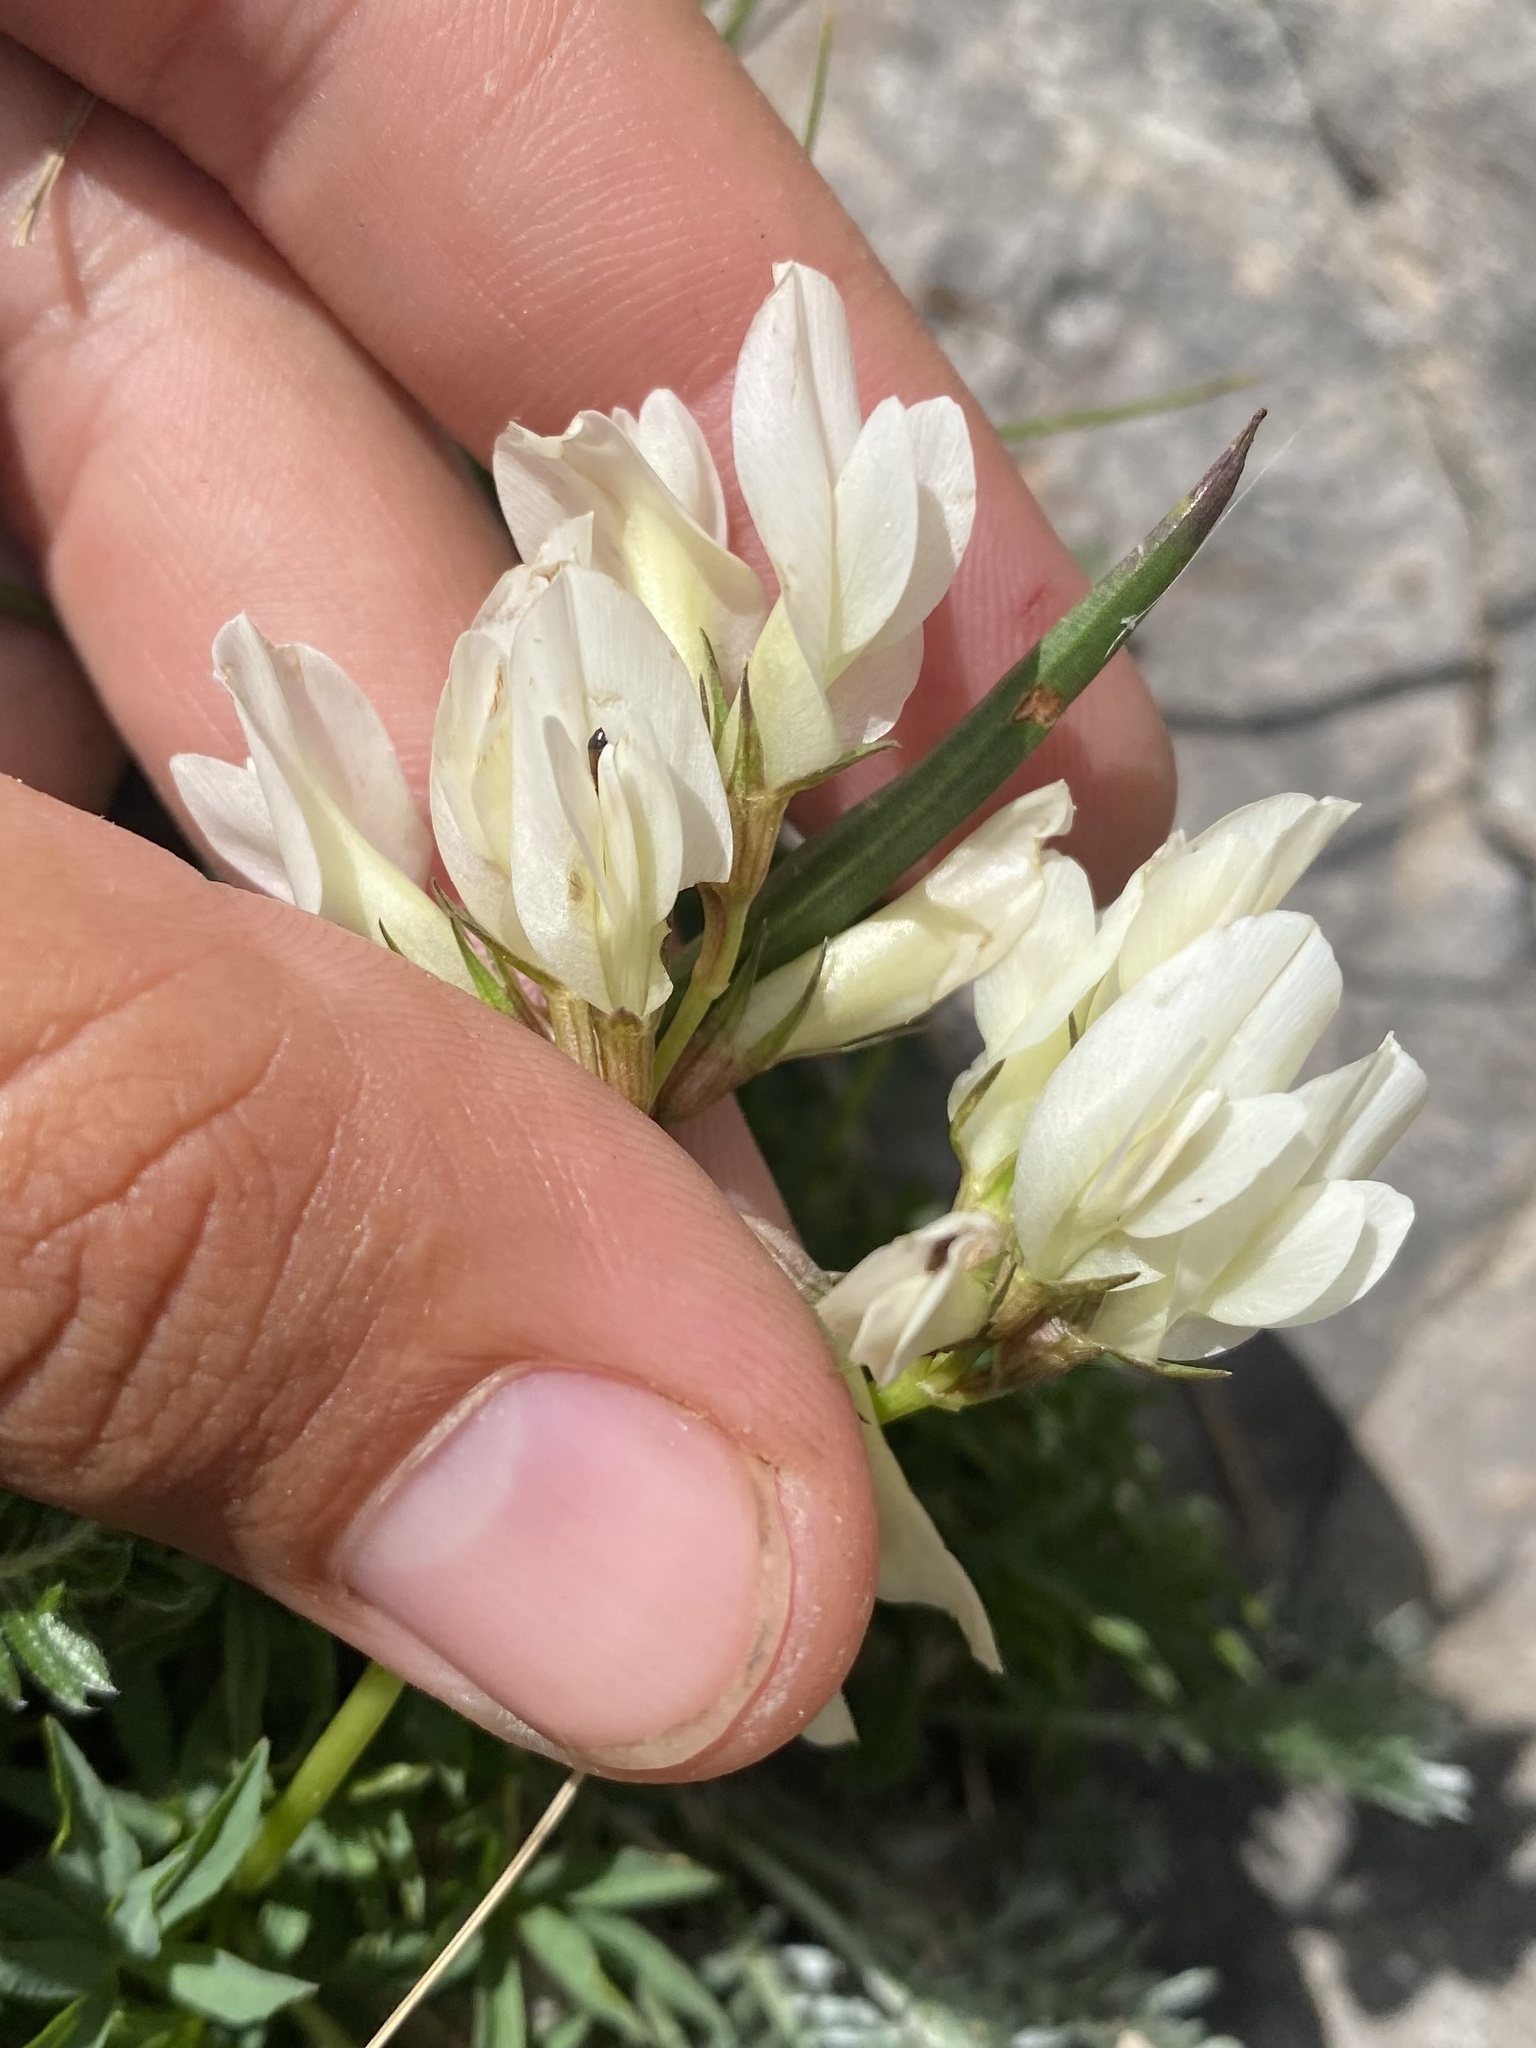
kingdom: Plantae
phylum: Tracheophyta
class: Magnoliopsida
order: Fabales
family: Fabaceae
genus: Trifolium
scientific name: Trifolium polyphyllum
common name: Many-leaf clover
